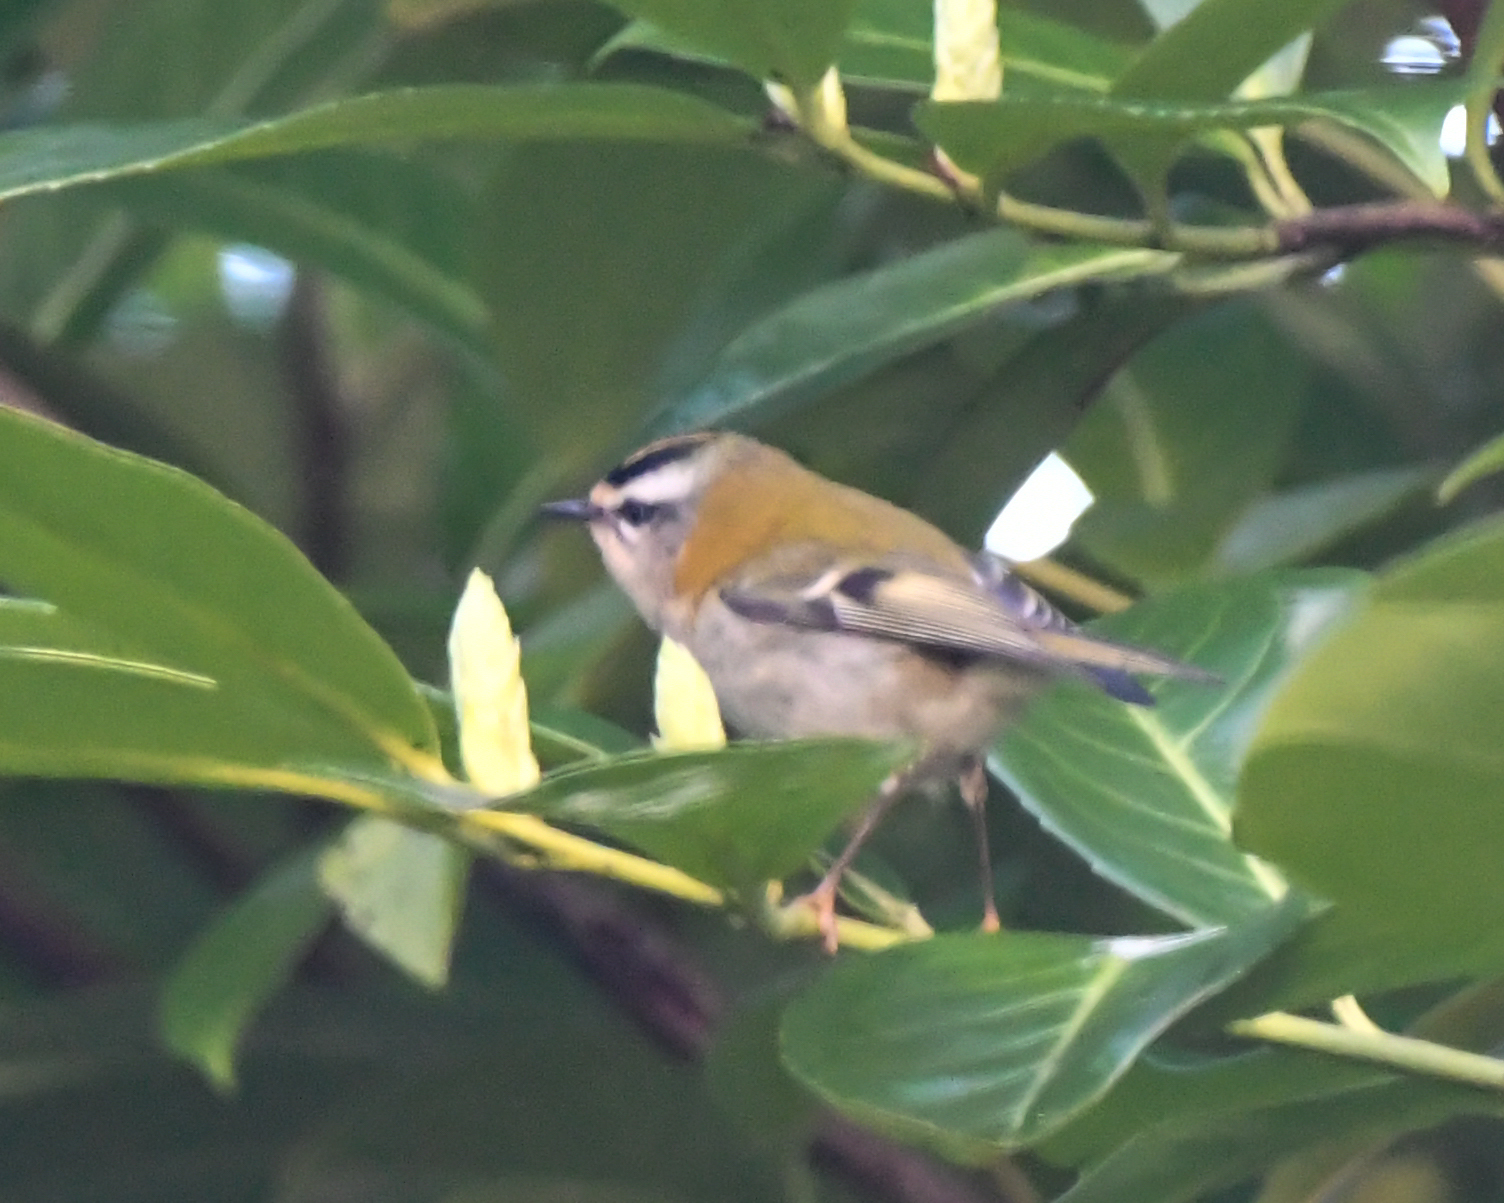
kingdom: Animalia
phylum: Chordata
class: Aves
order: Passeriformes
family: Regulidae
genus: Regulus
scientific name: Regulus ignicapilla
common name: Firecrest
